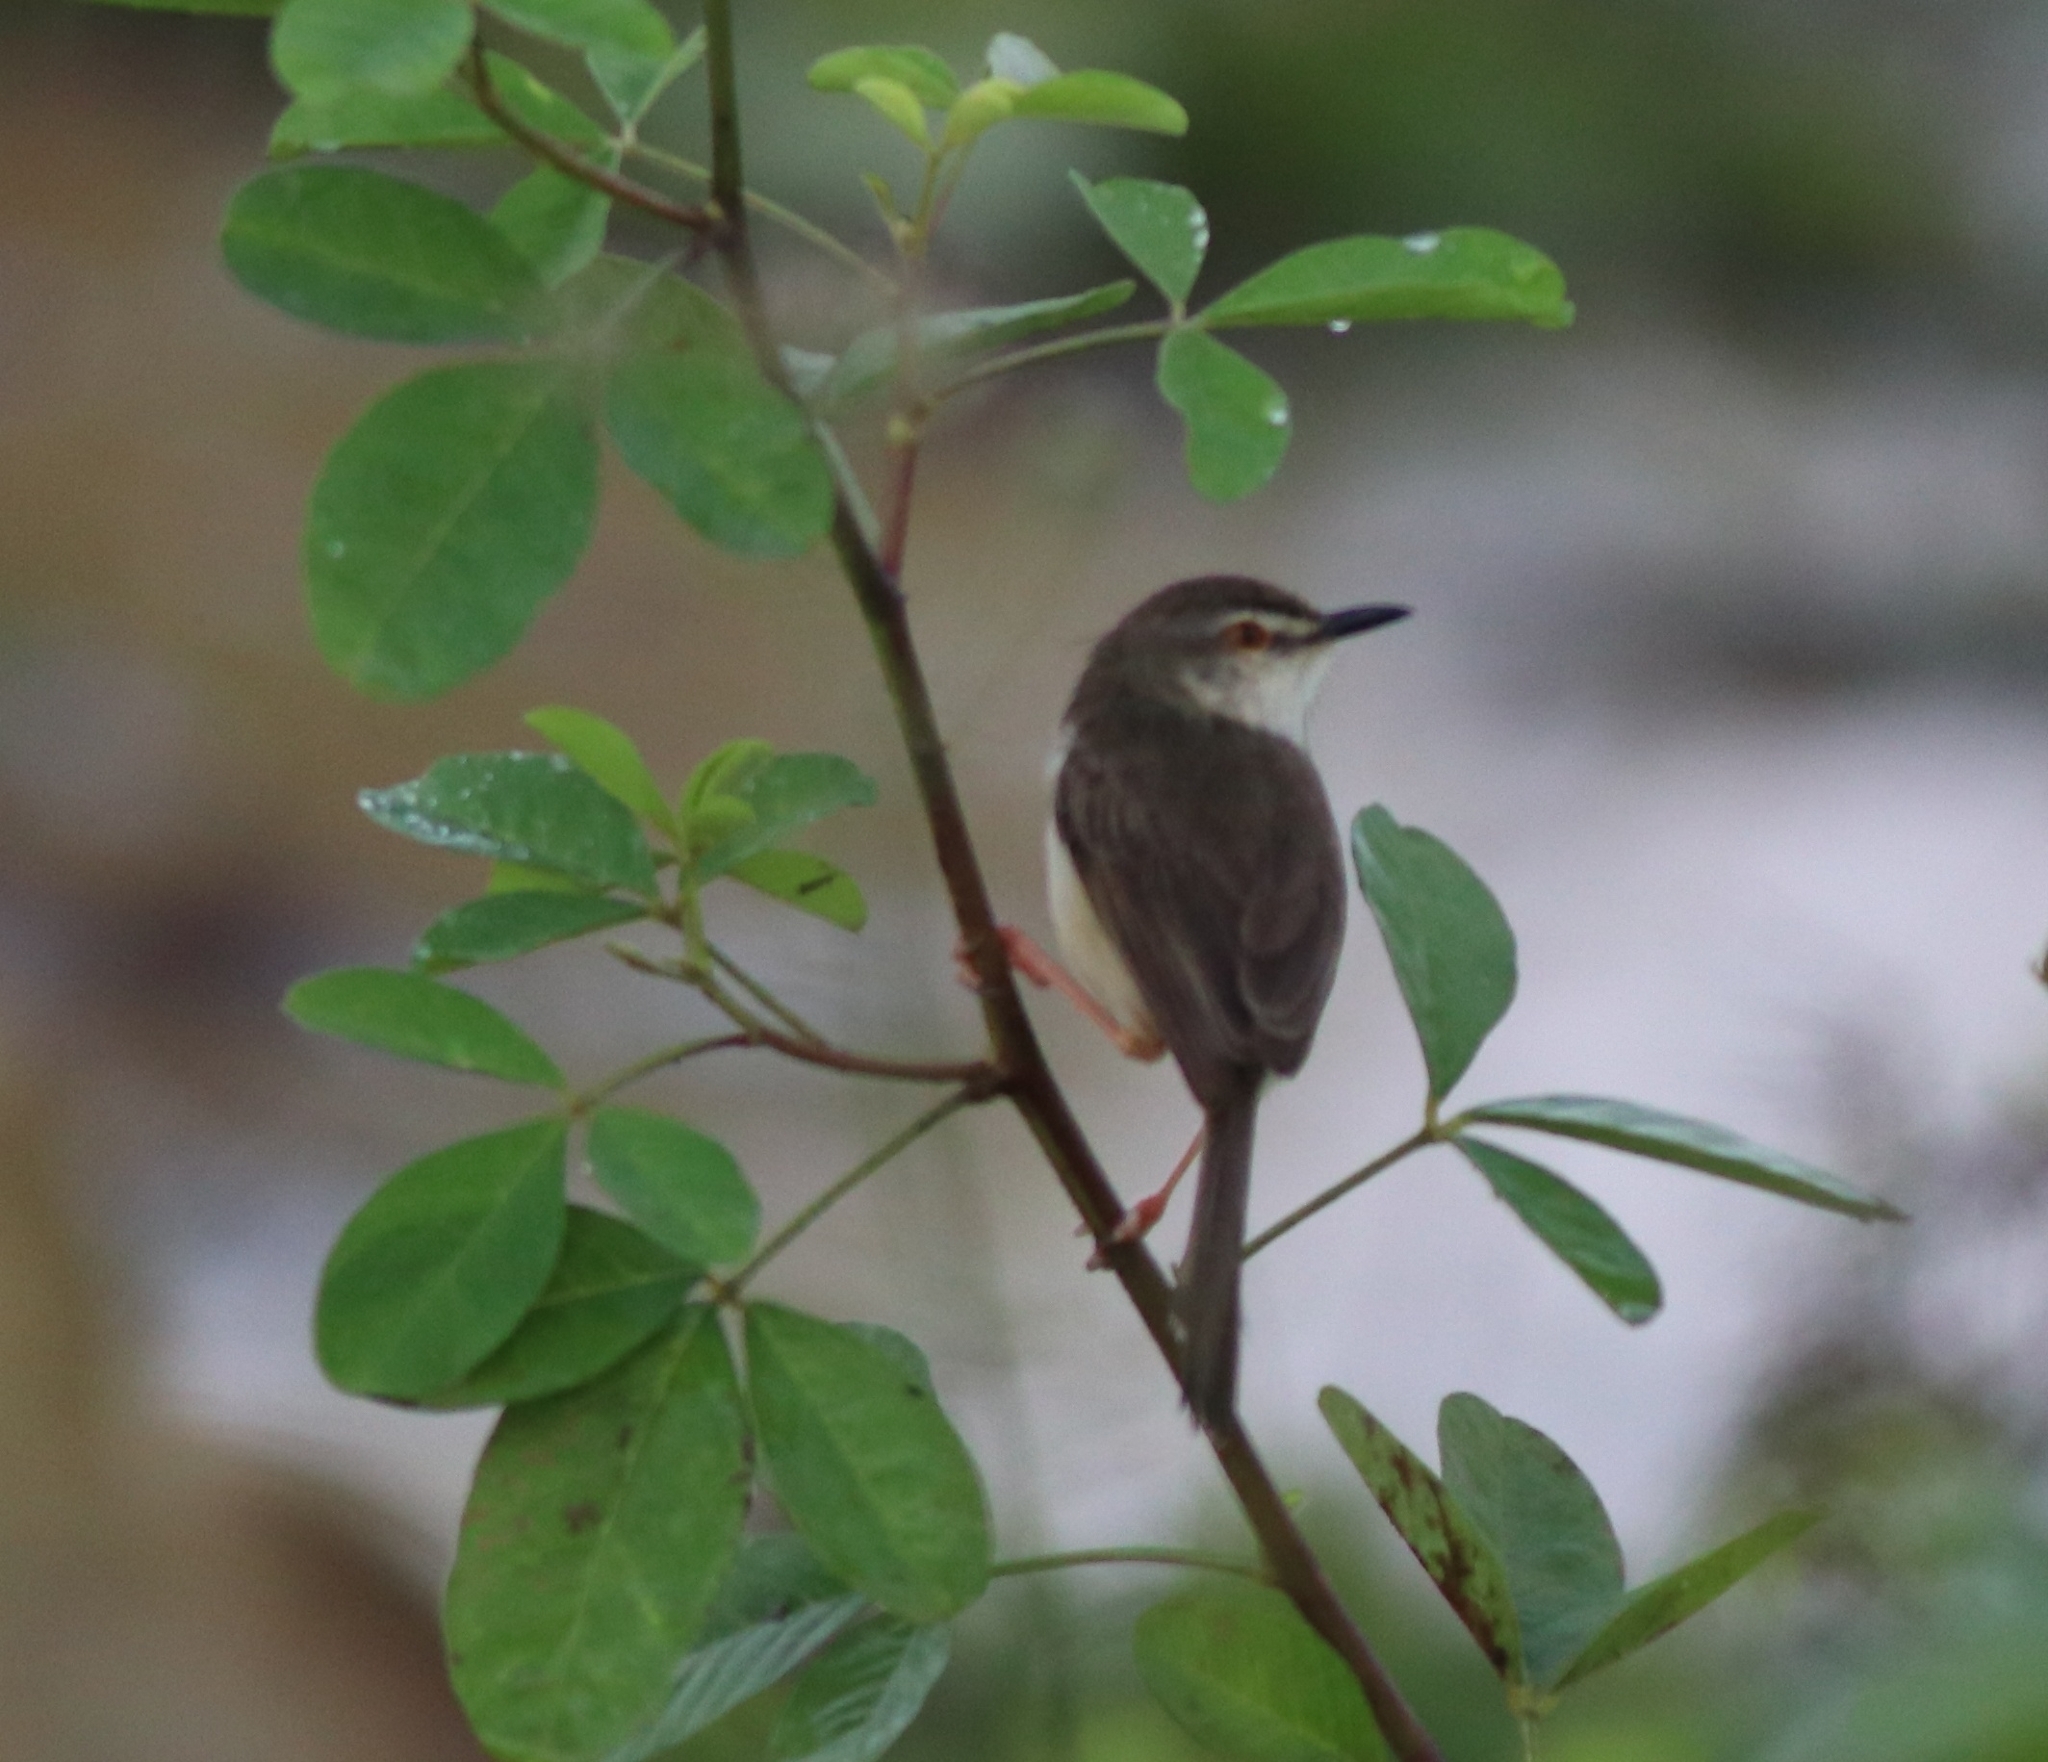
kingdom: Animalia
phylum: Chordata
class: Aves
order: Passeriformes
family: Cisticolidae
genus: Prinia
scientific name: Prinia inornata
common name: Plain prinia
